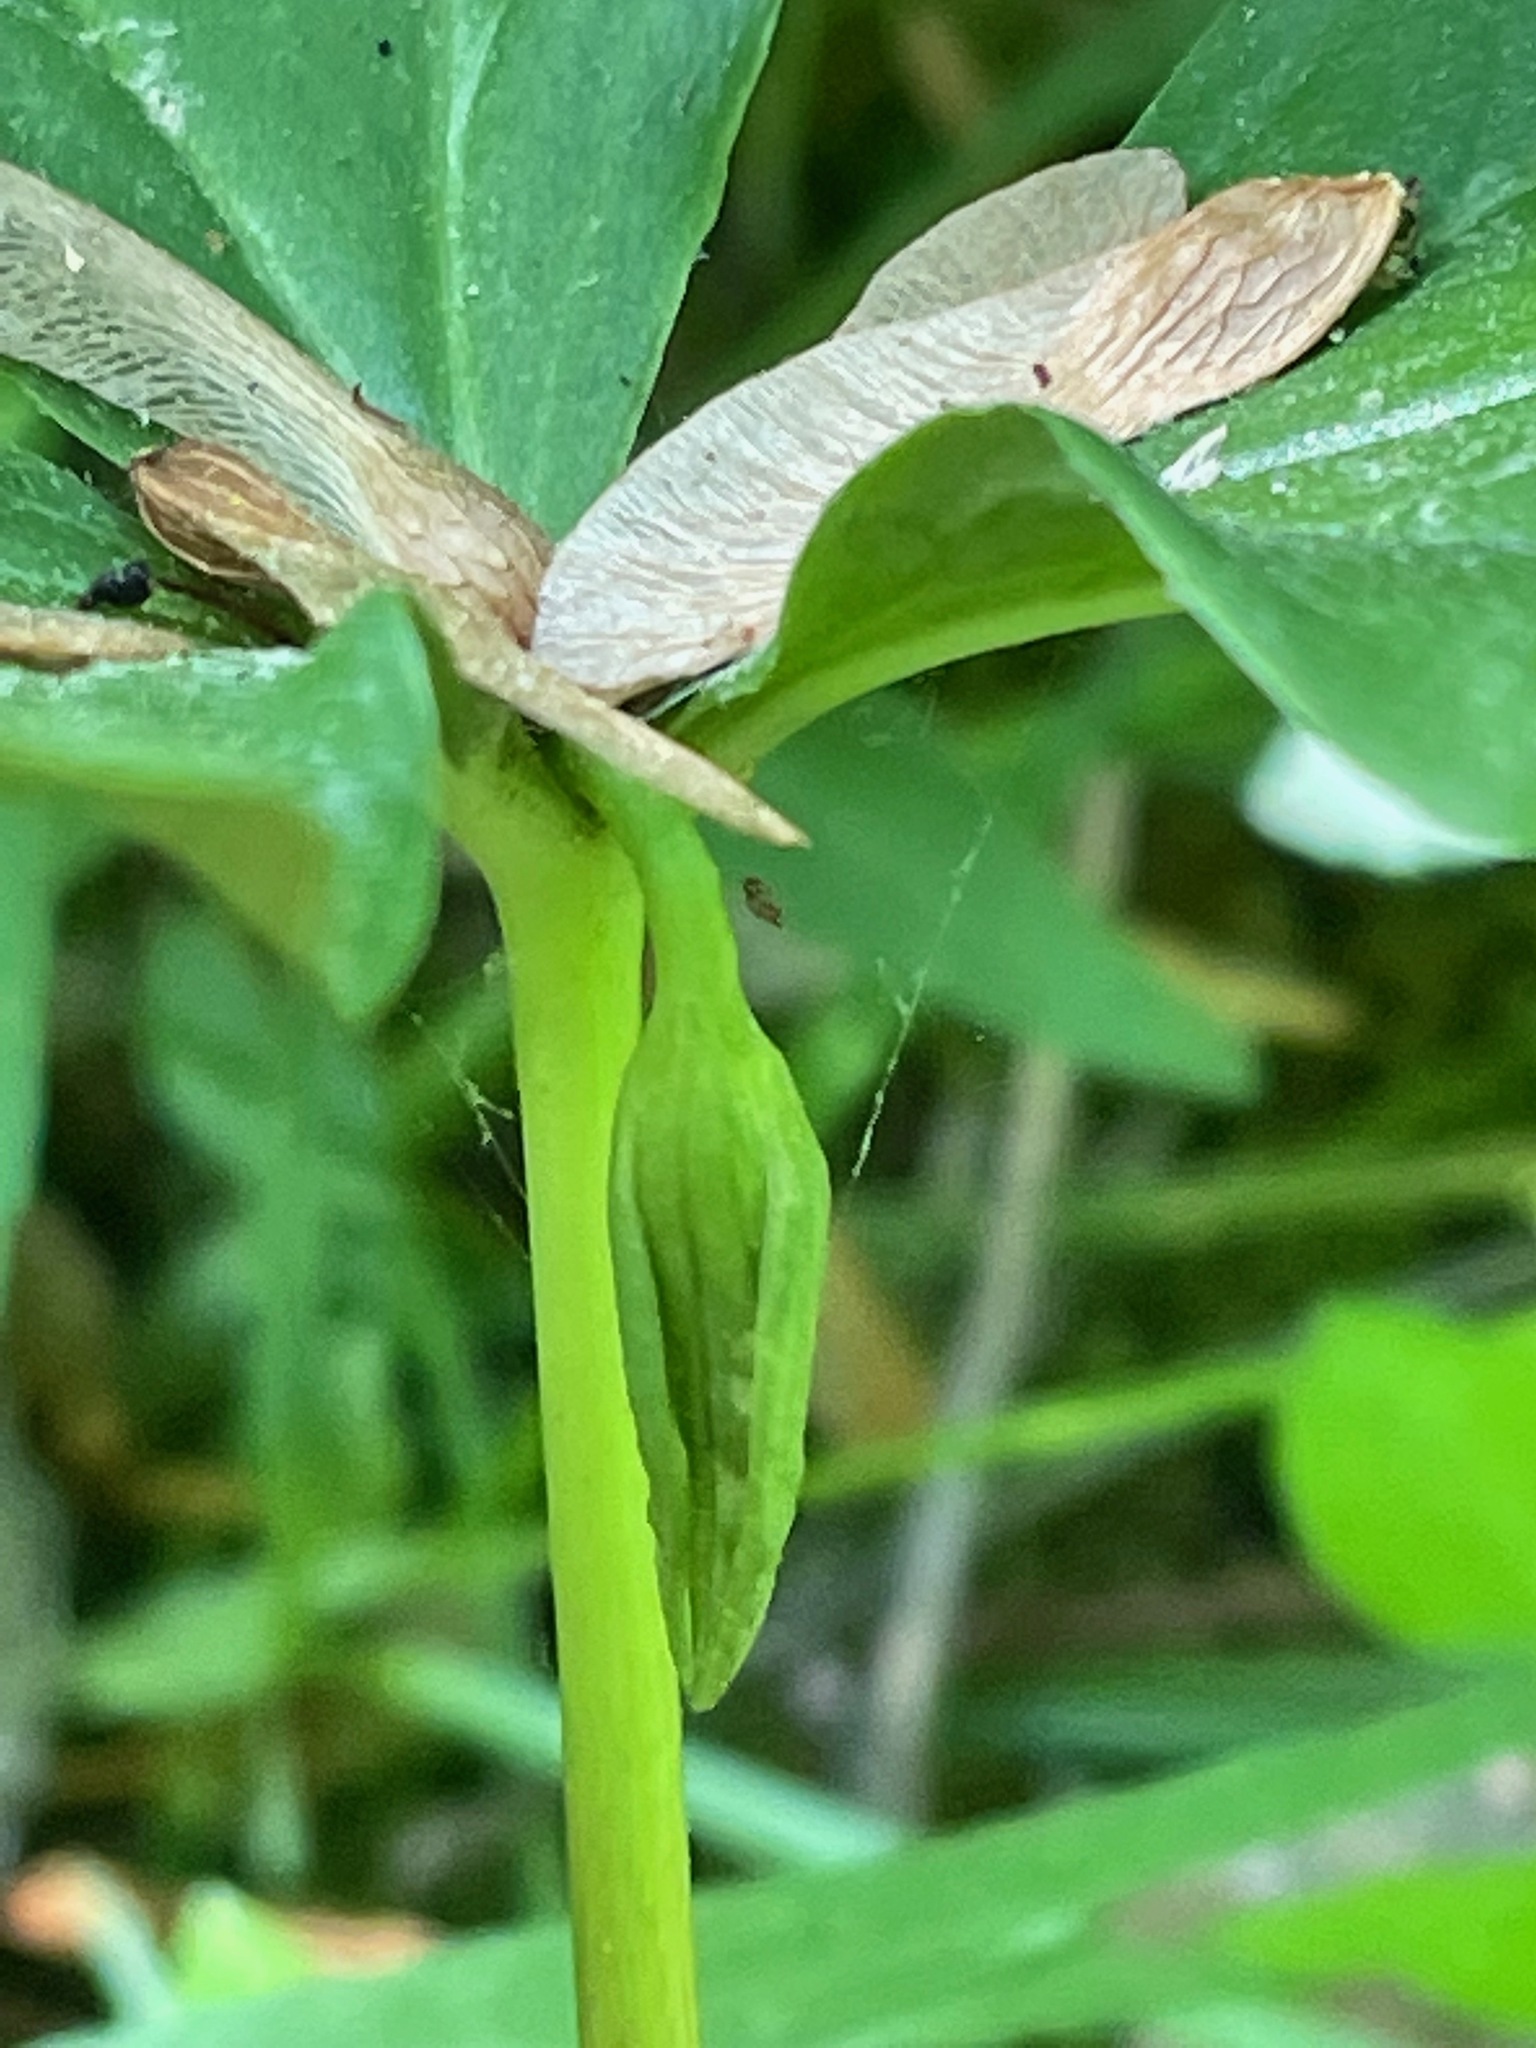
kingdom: Plantae
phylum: Tracheophyta
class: Liliopsida
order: Liliales
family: Melanthiaceae
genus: Trillium
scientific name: Trillium cernuum
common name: Nodding trillium
